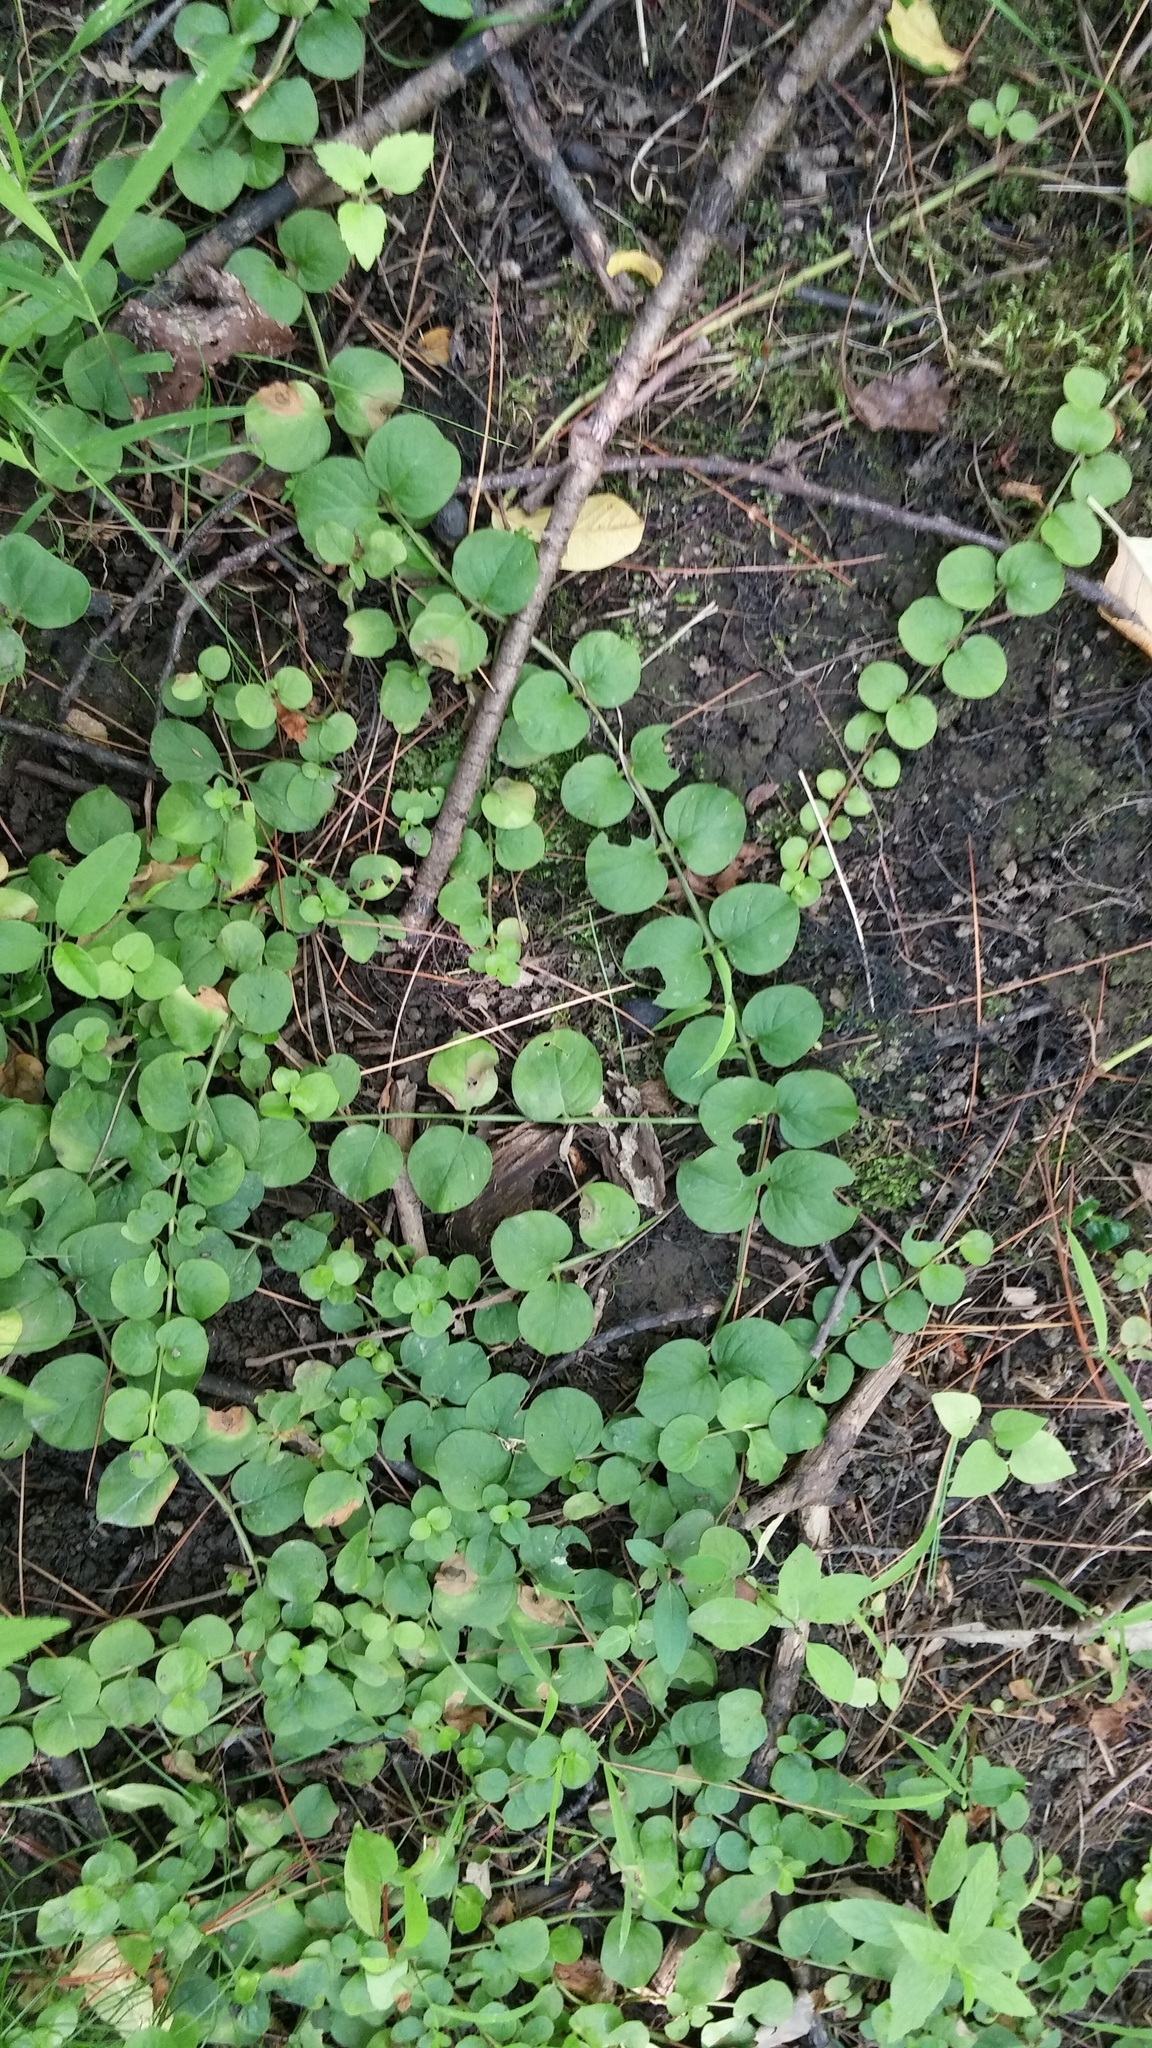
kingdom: Plantae
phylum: Tracheophyta
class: Magnoliopsida
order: Ericales
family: Primulaceae
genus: Lysimachia
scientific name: Lysimachia nummularia
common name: Moneywort
